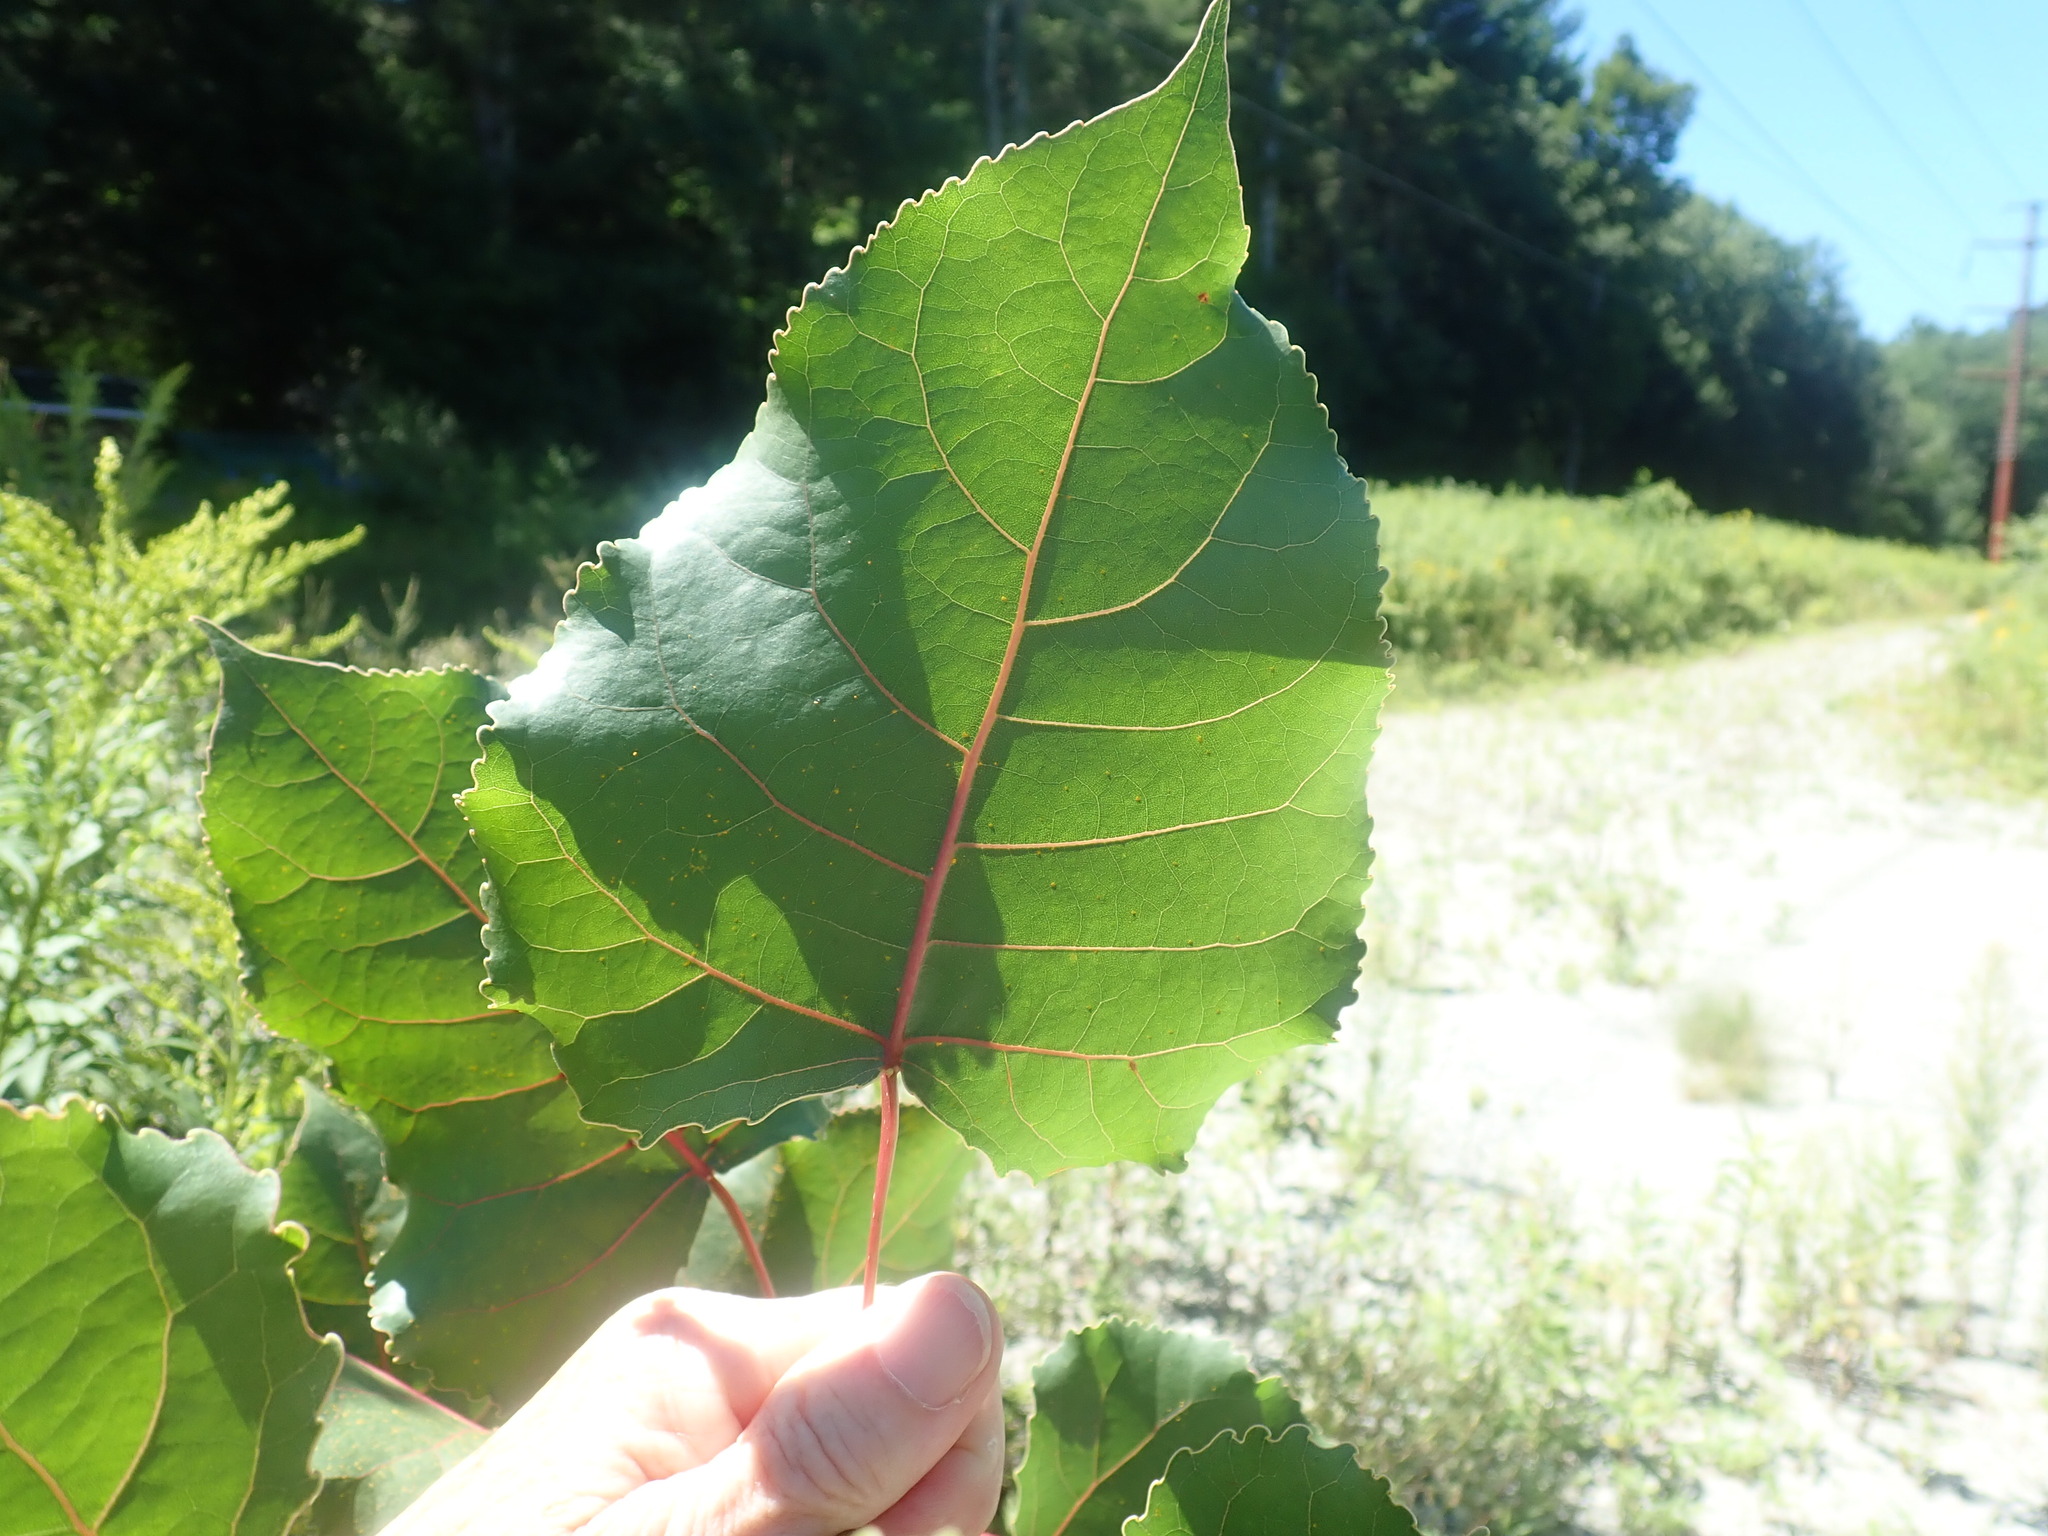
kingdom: Plantae
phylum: Tracheophyta
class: Magnoliopsida
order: Malpighiales
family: Salicaceae
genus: Populus
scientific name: Populus deltoides
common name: Eastern cottonwood
